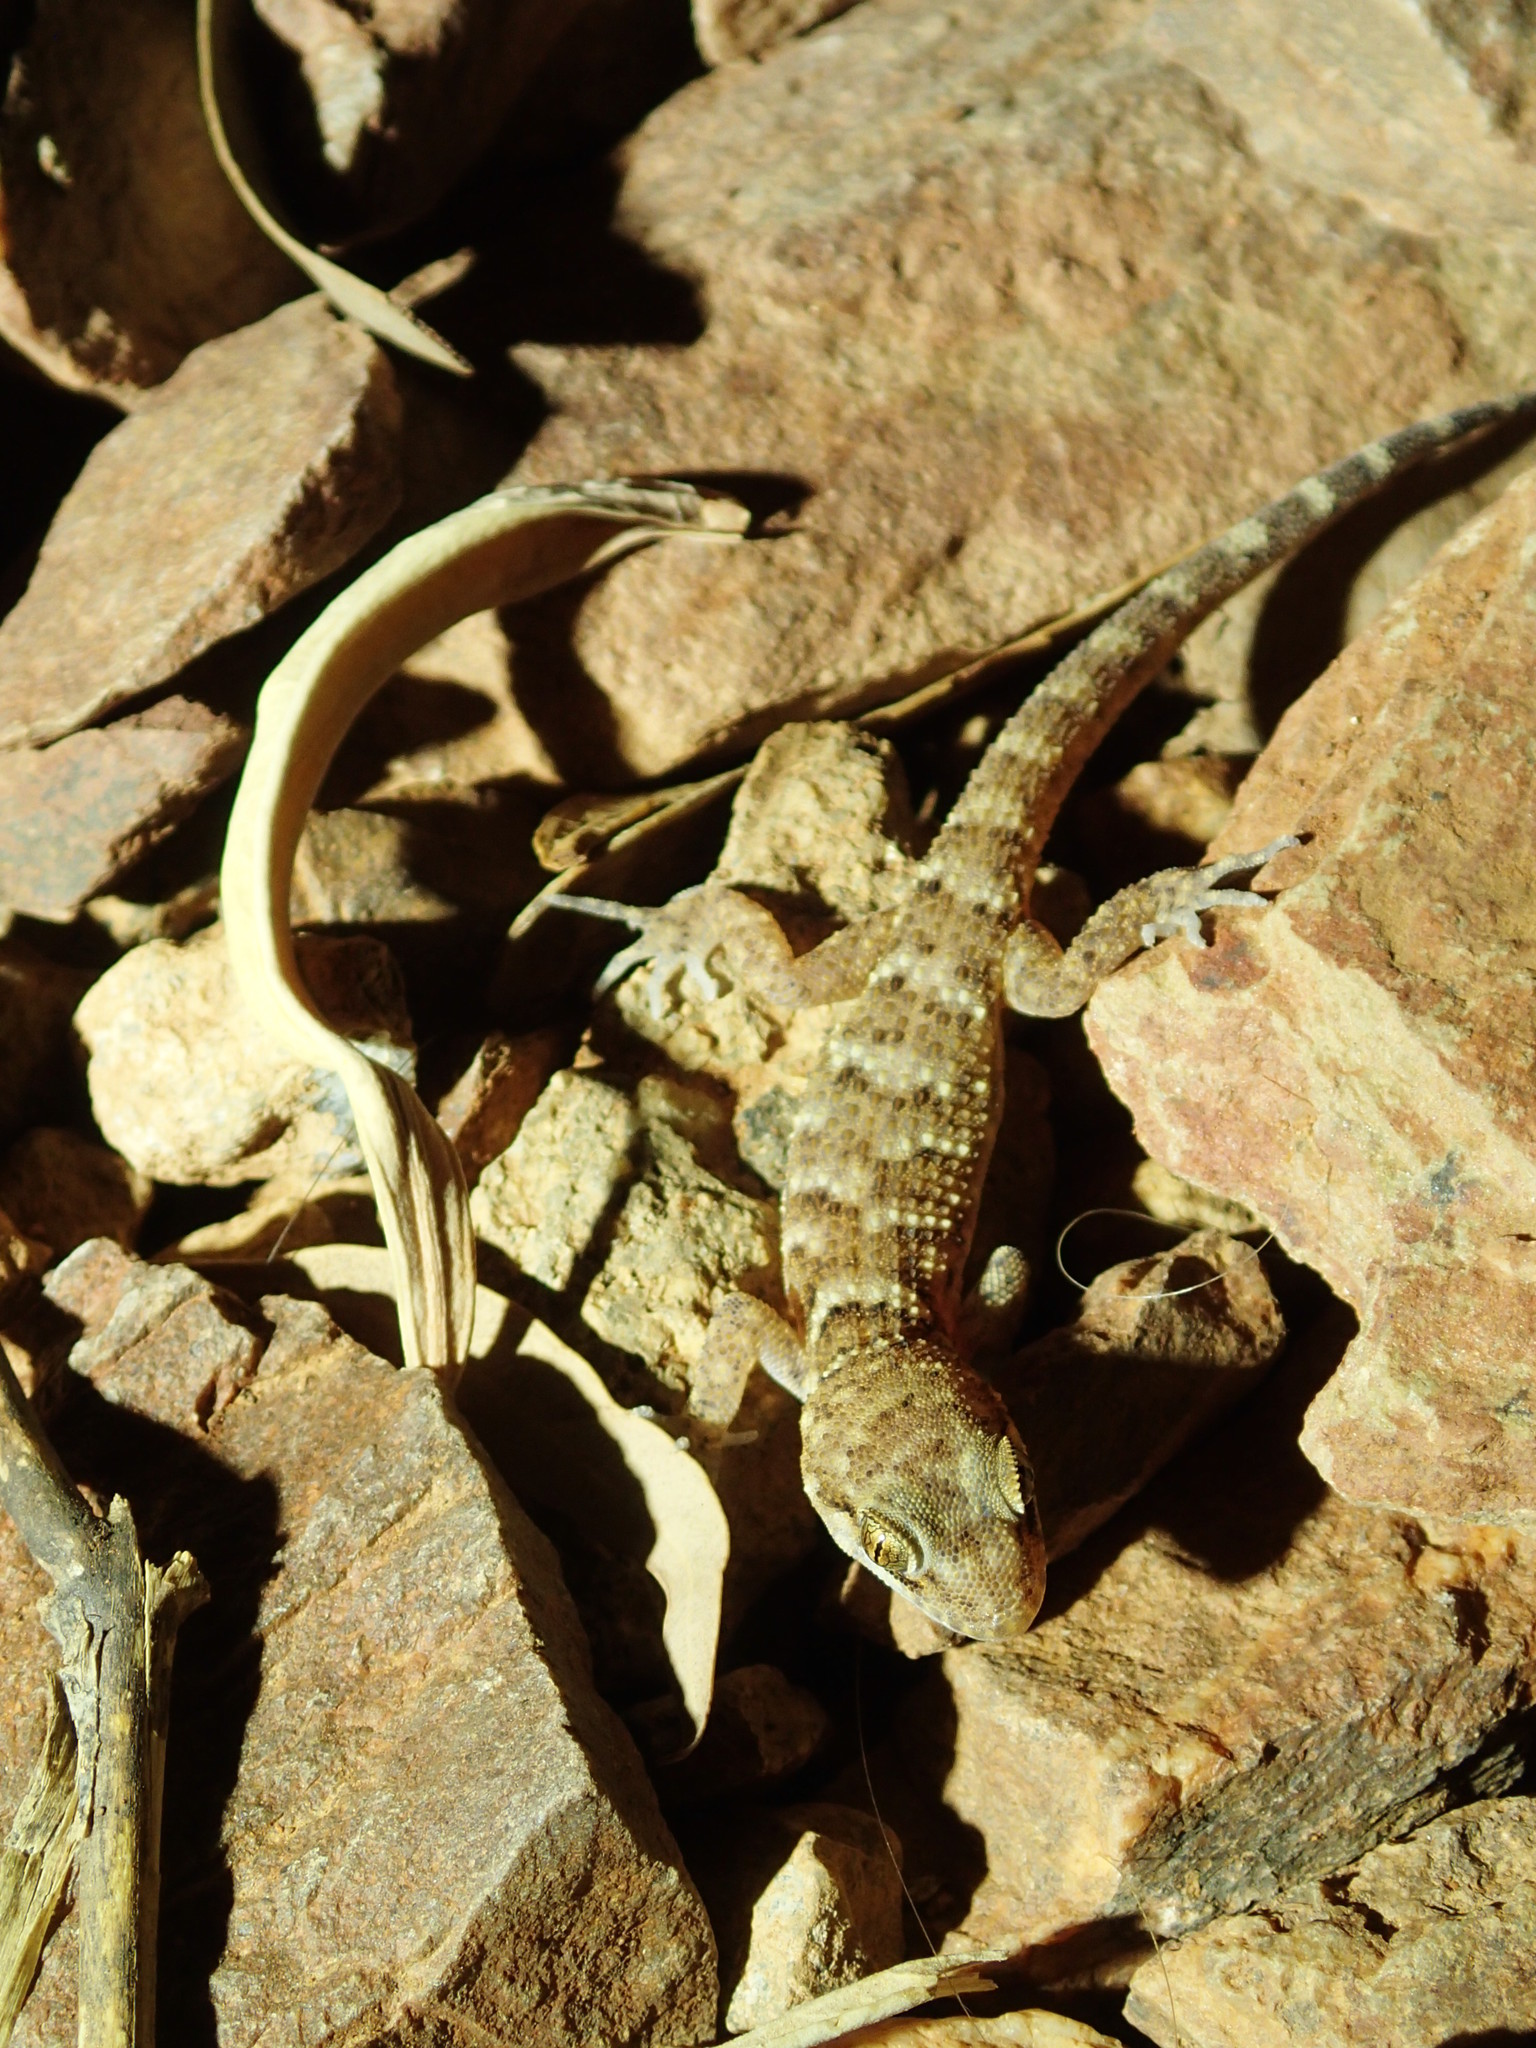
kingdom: Animalia
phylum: Chordata
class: Squamata
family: Gekkonidae
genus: Heteronotia
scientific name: Heteronotia binoei
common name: Bynoe's gecko
